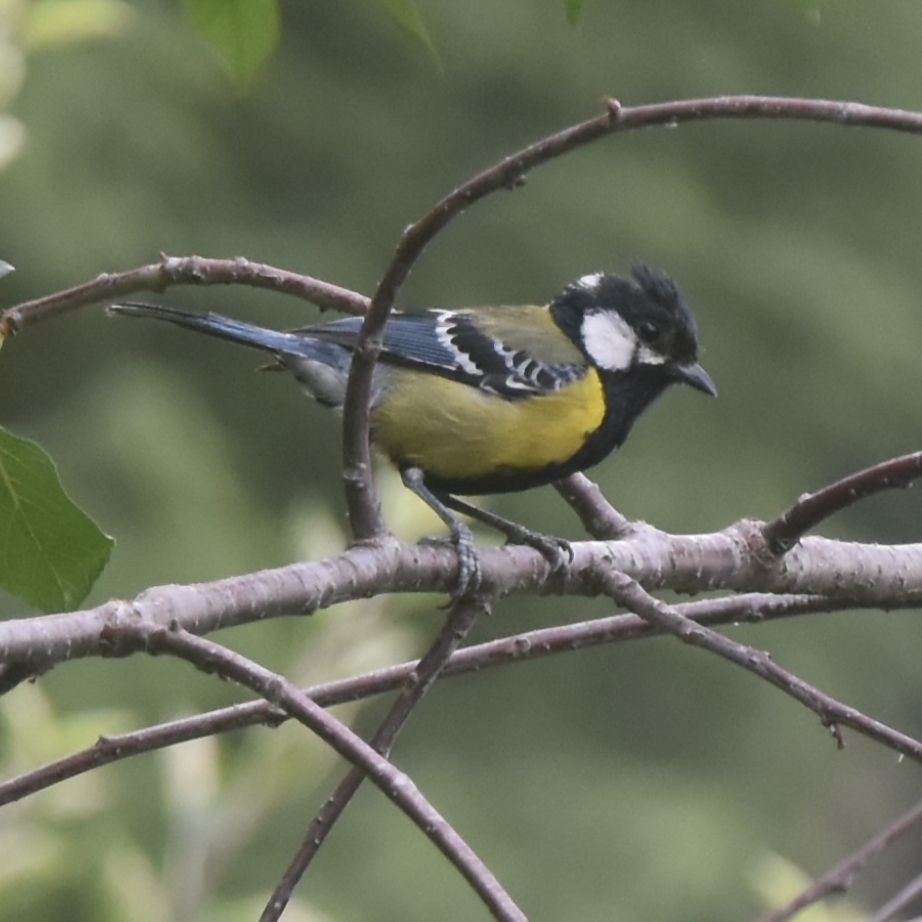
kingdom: Animalia
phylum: Chordata
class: Aves
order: Passeriformes
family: Paridae
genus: Parus
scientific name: Parus monticolus
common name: Green-backed tit
